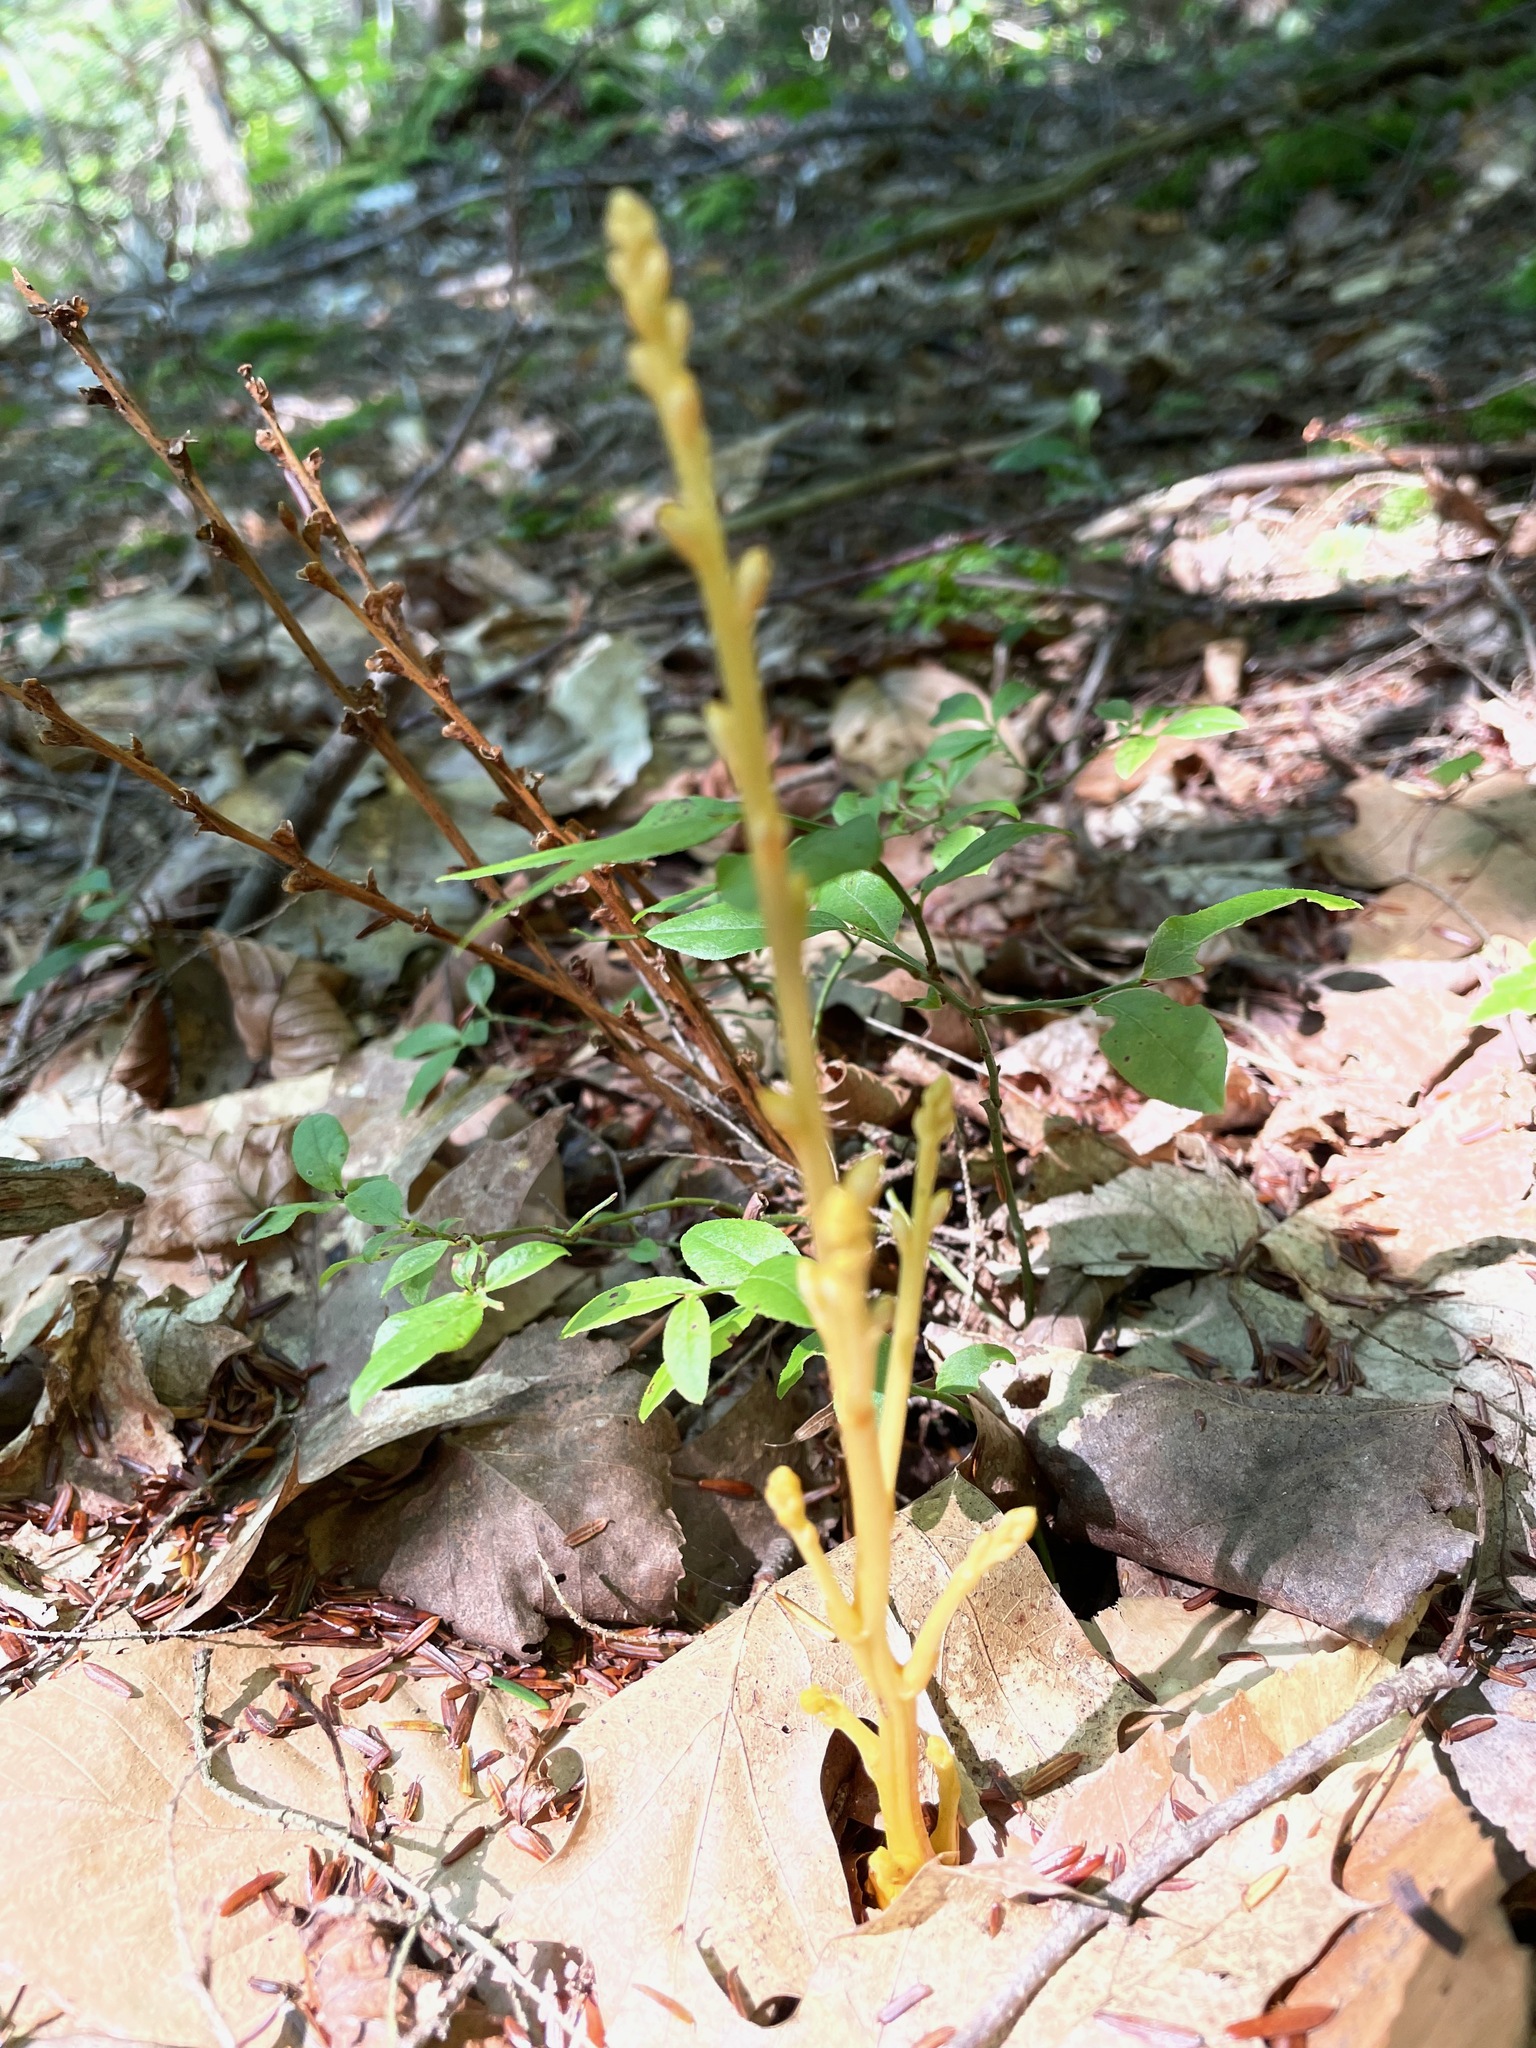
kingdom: Plantae
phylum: Tracheophyta
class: Magnoliopsida
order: Lamiales
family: Orobanchaceae
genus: Epifagus
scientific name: Epifagus virginiana
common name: Beechdrops
